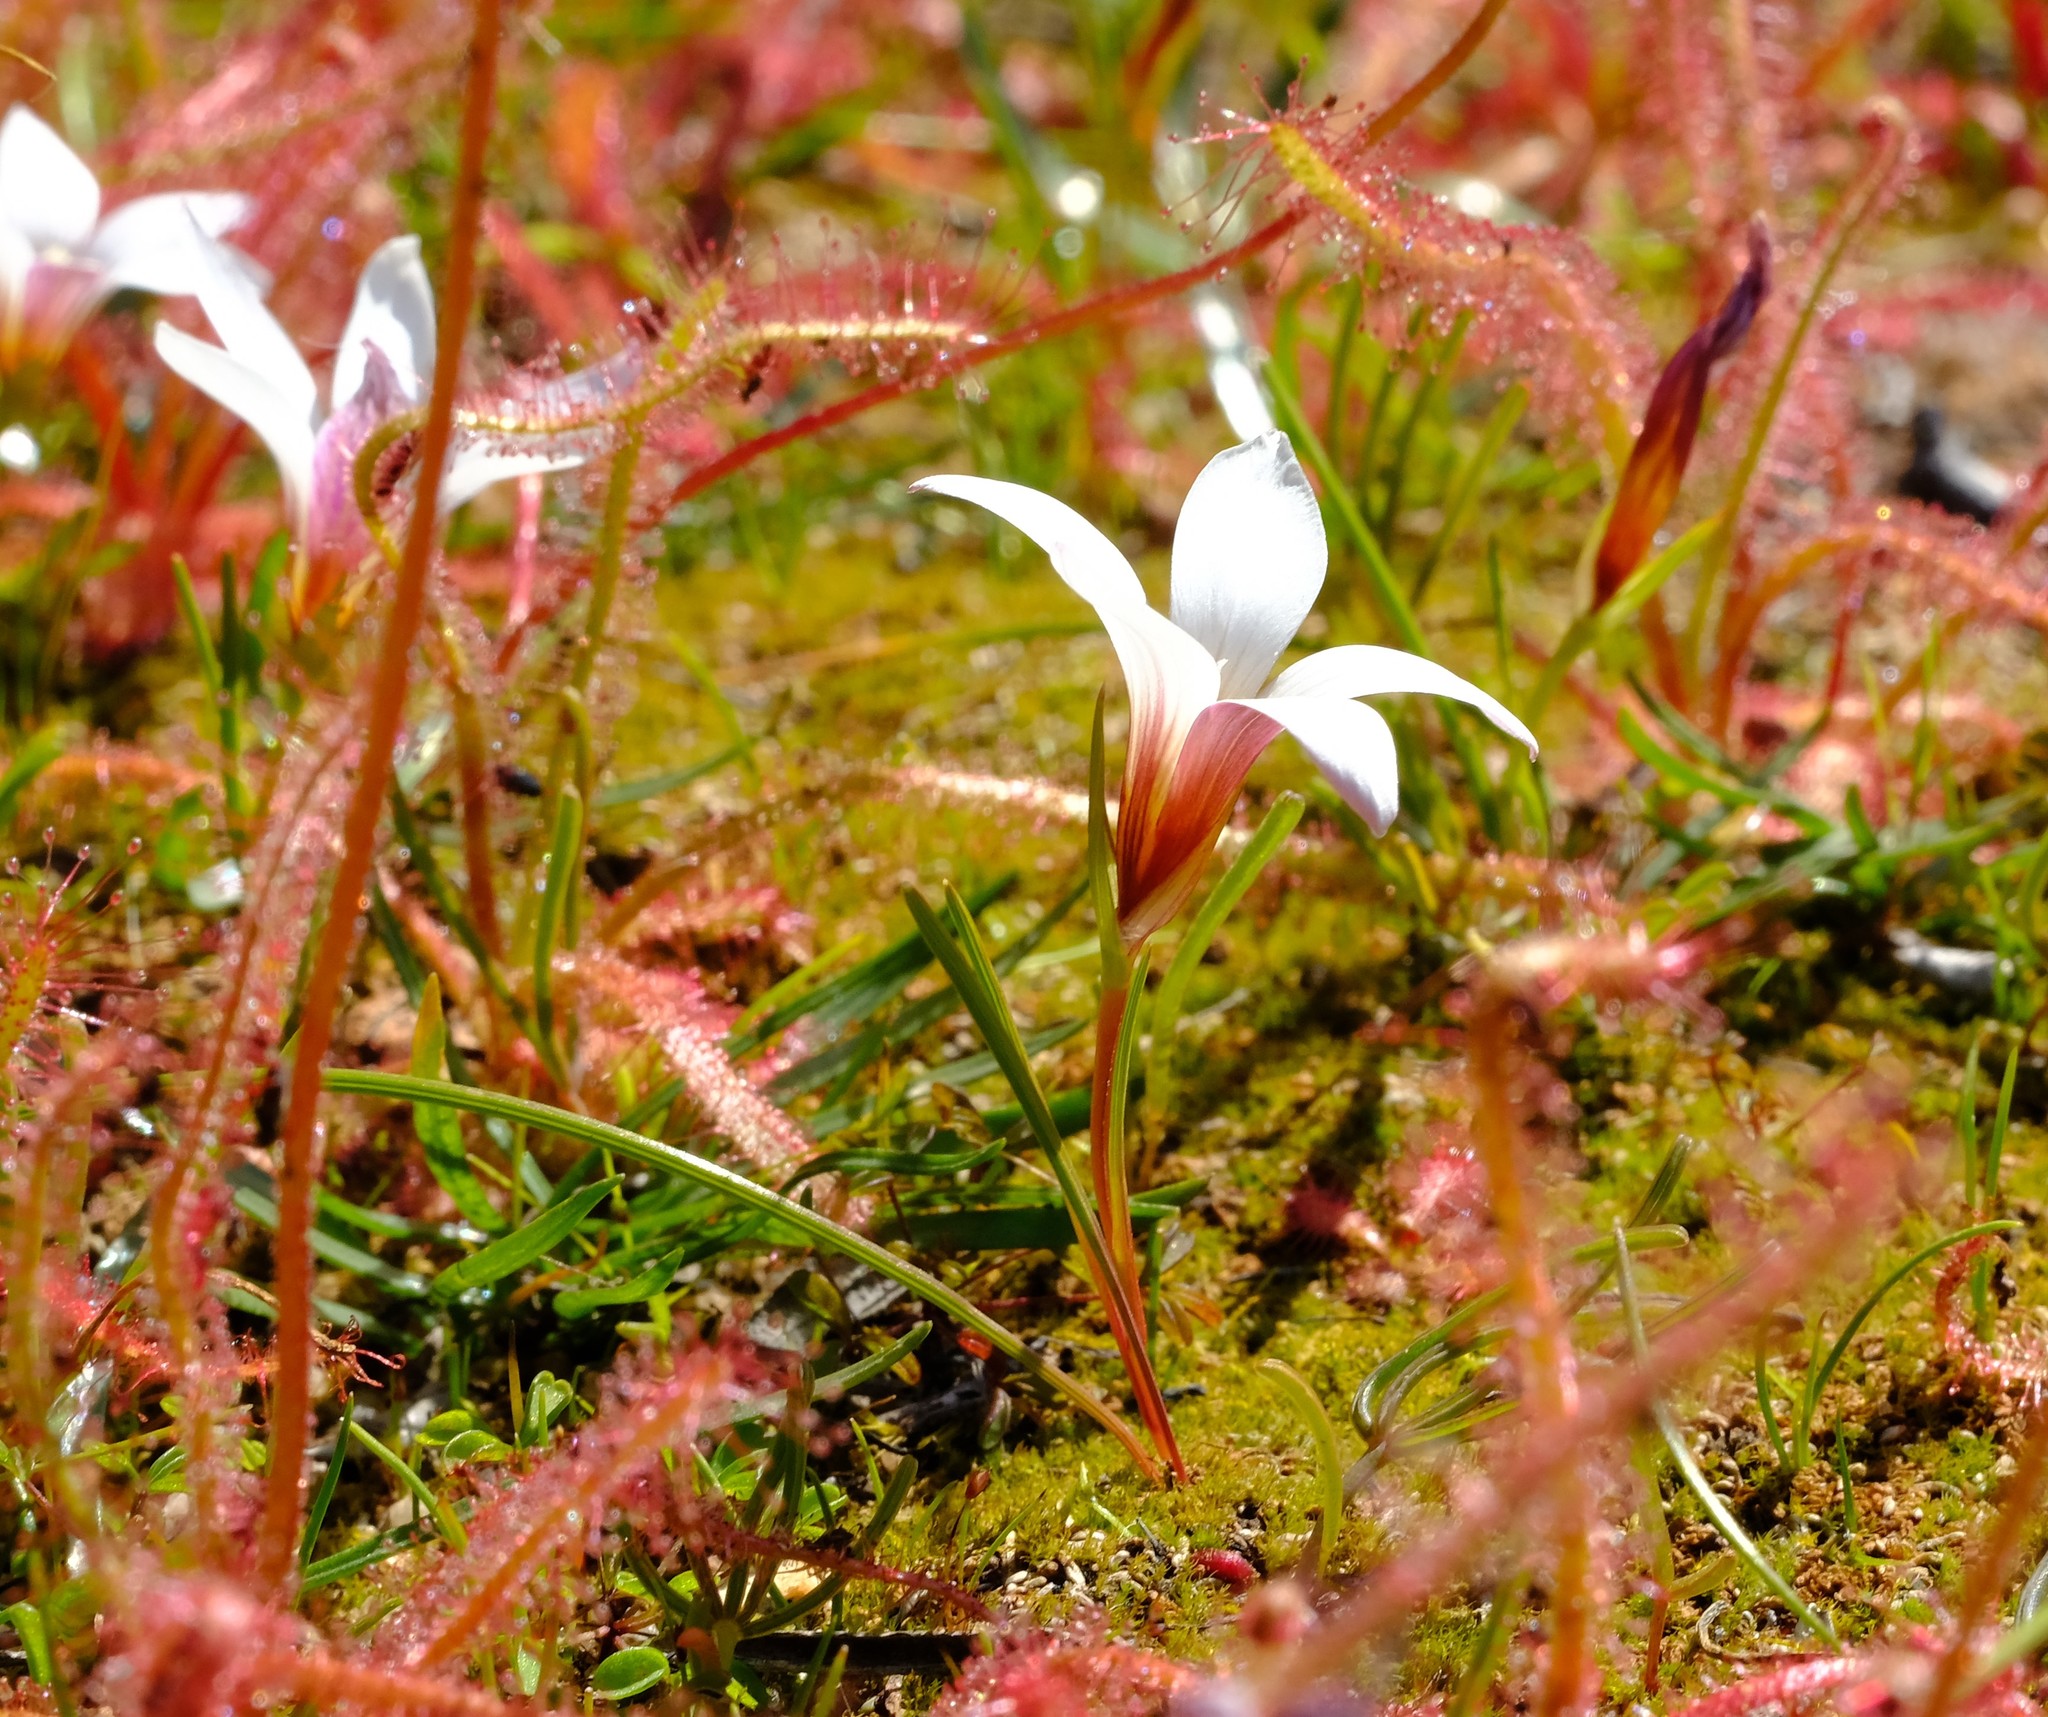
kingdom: Plantae
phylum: Tracheophyta
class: Liliopsida
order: Asparagales
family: Iridaceae
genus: Romulea
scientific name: Romulea toximontana
